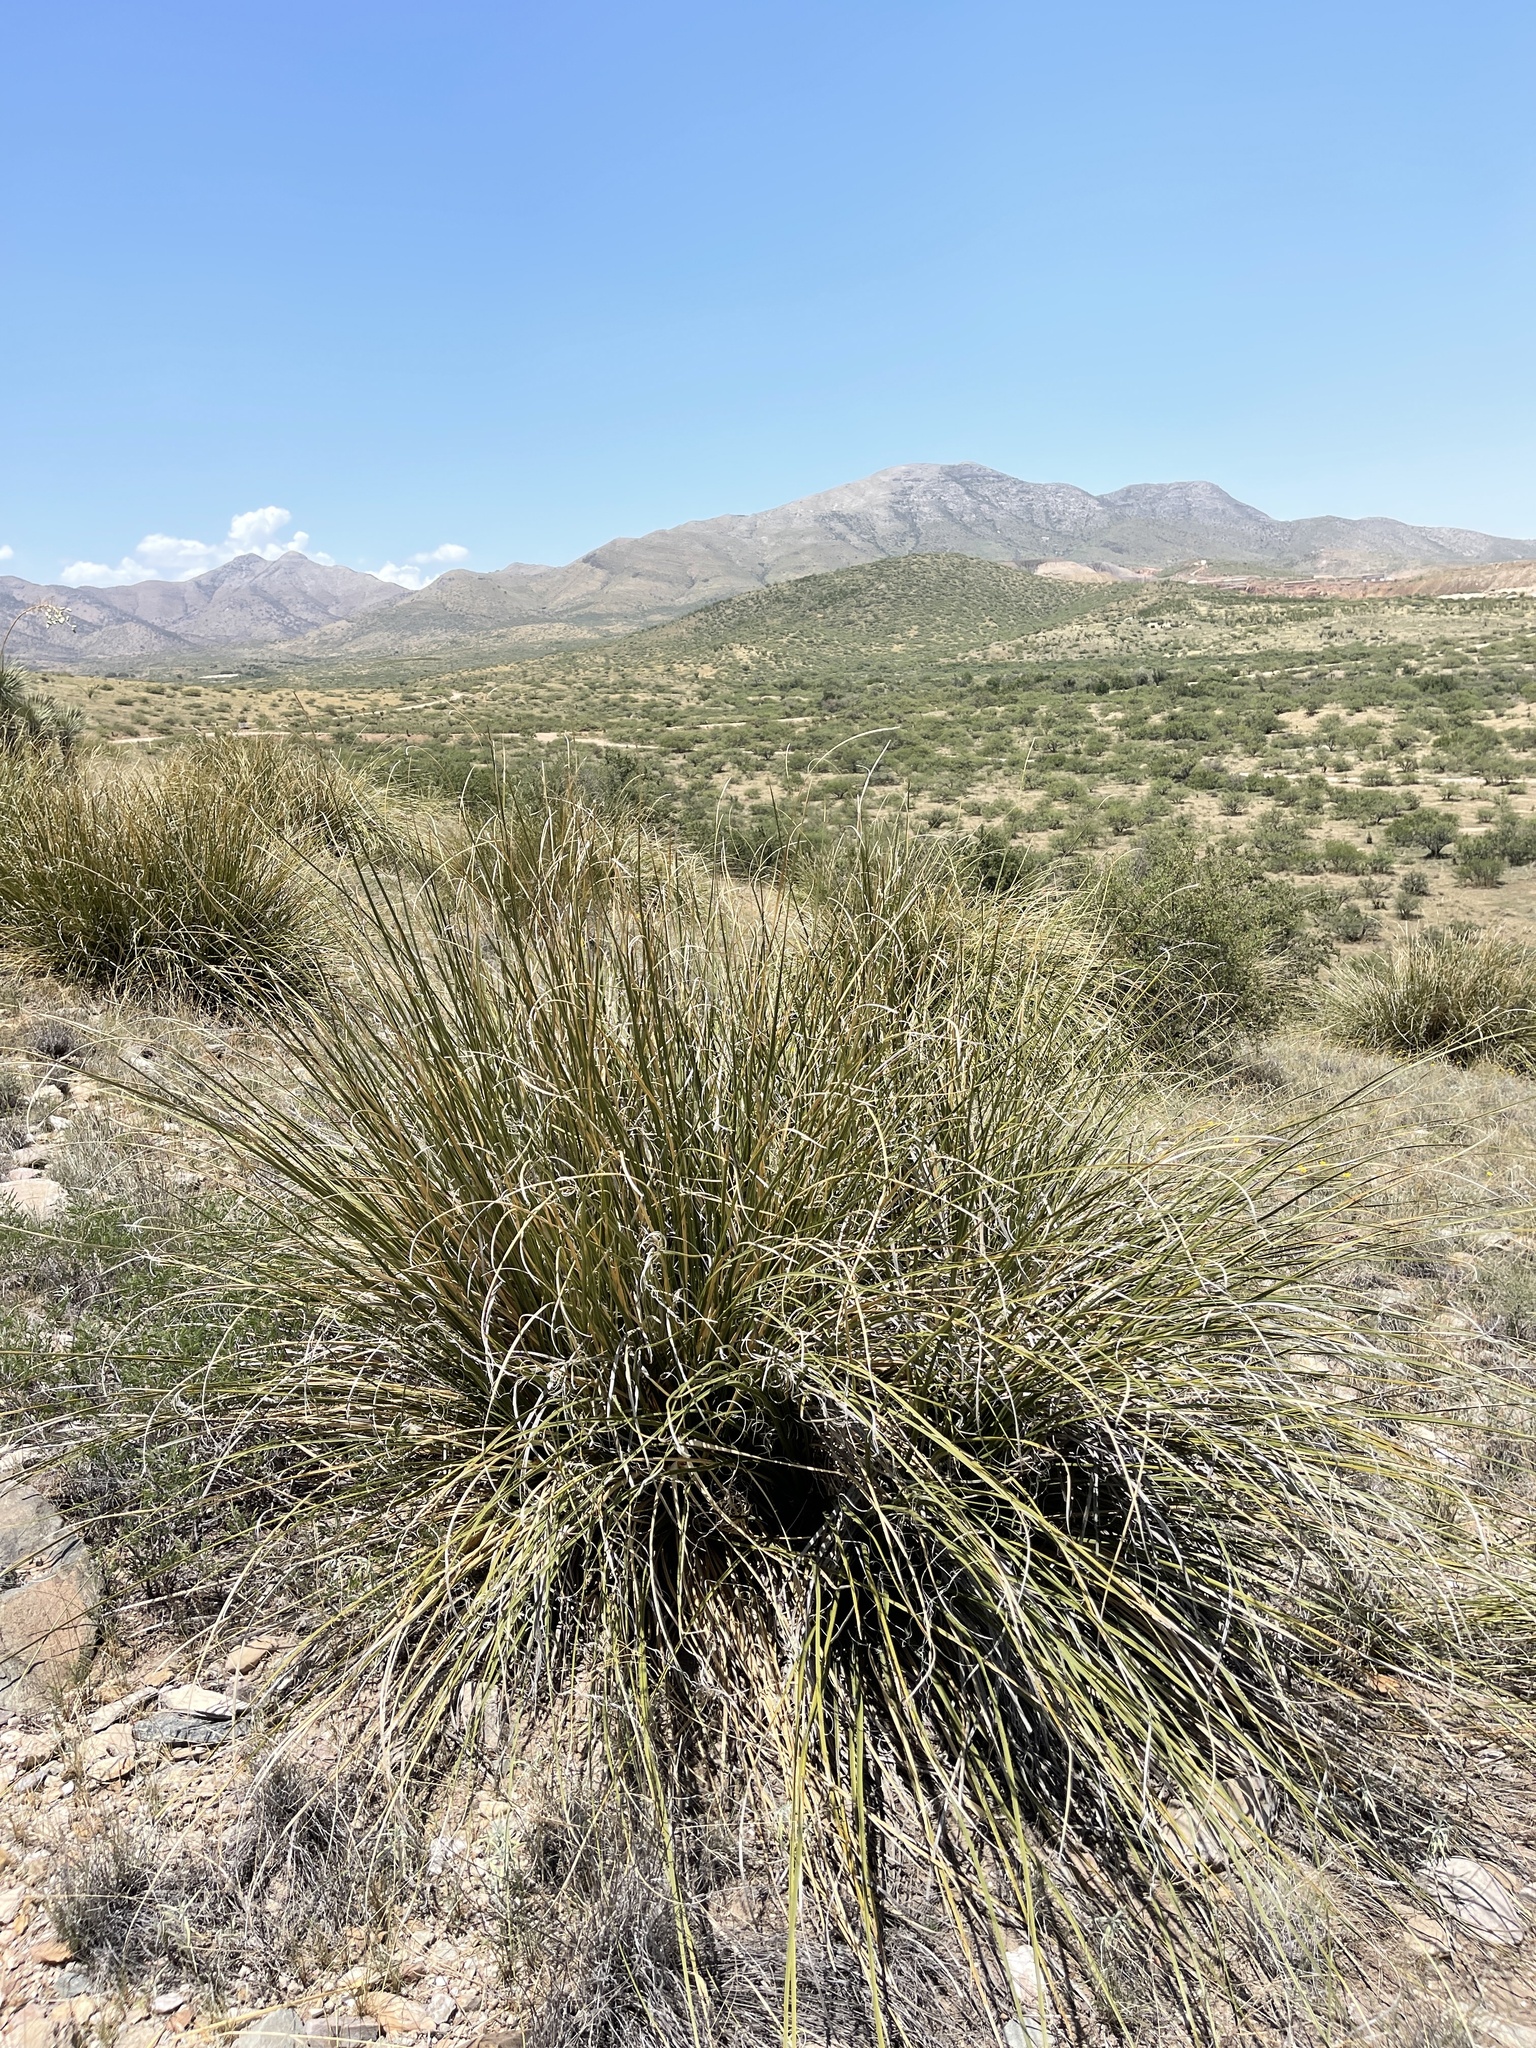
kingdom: Plantae
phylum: Tracheophyta
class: Liliopsida
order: Asparagales
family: Asparagaceae
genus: Nolina
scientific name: Nolina microcarpa
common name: Bear-grass
